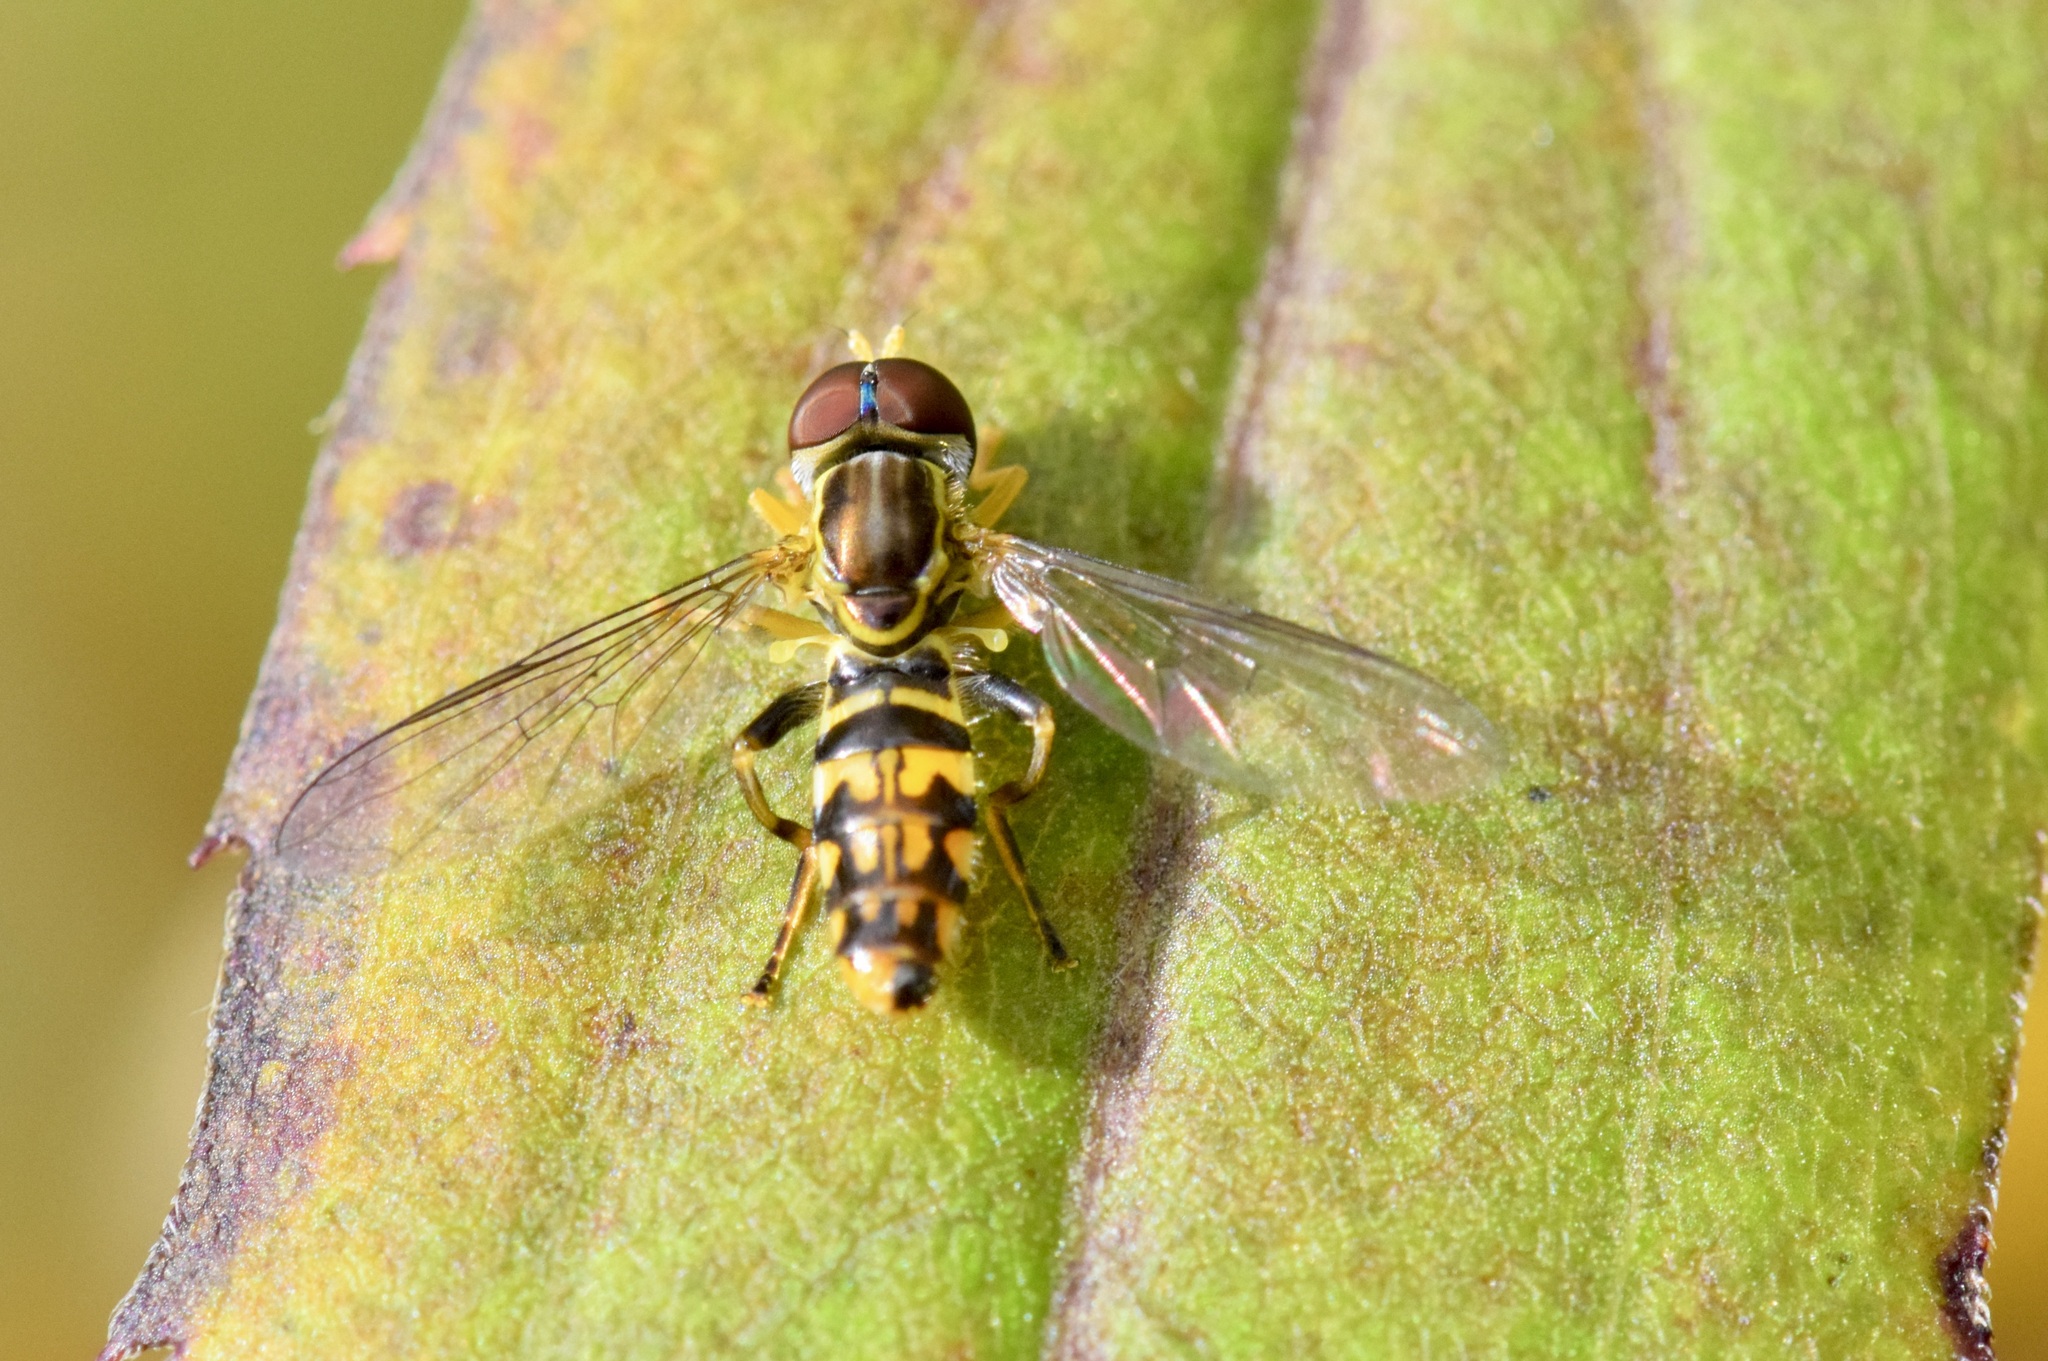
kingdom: Animalia
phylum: Arthropoda
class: Insecta
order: Diptera
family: Syrphidae
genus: Toxomerus
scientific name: Toxomerus geminatus
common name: Eastern calligrapher
